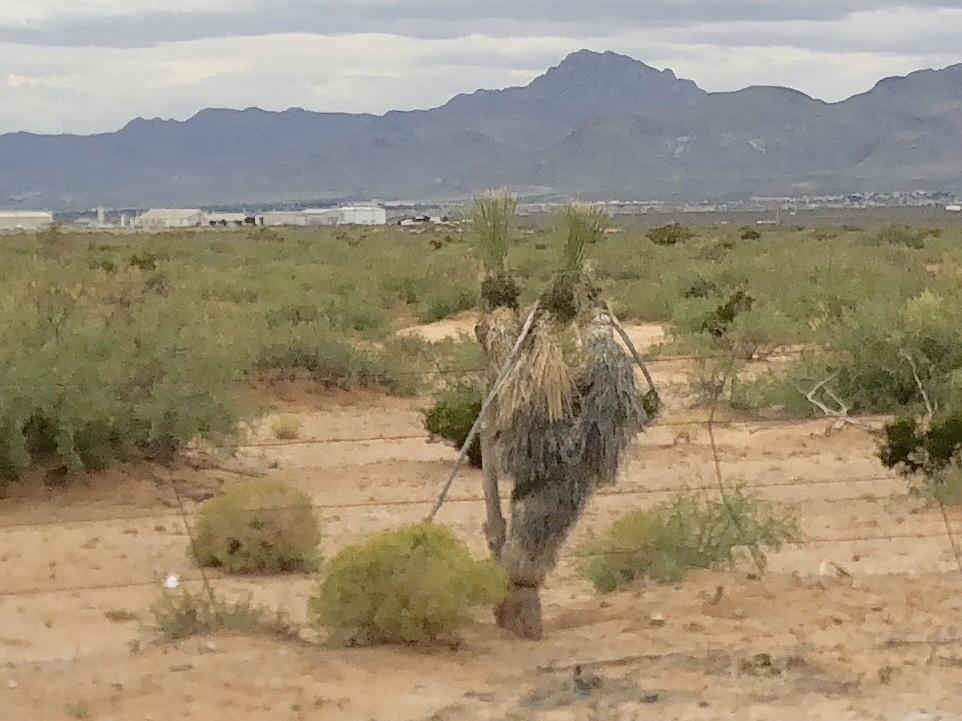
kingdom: Plantae
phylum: Tracheophyta
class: Liliopsida
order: Asparagales
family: Asparagaceae
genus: Yucca
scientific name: Yucca elata
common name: Palmella
